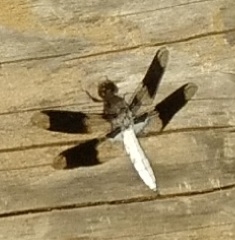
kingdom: Animalia
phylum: Arthropoda
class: Insecta
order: Odonata
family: Libellulidae
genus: Plathemis
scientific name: Plathemis lydia
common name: Common whitetail
